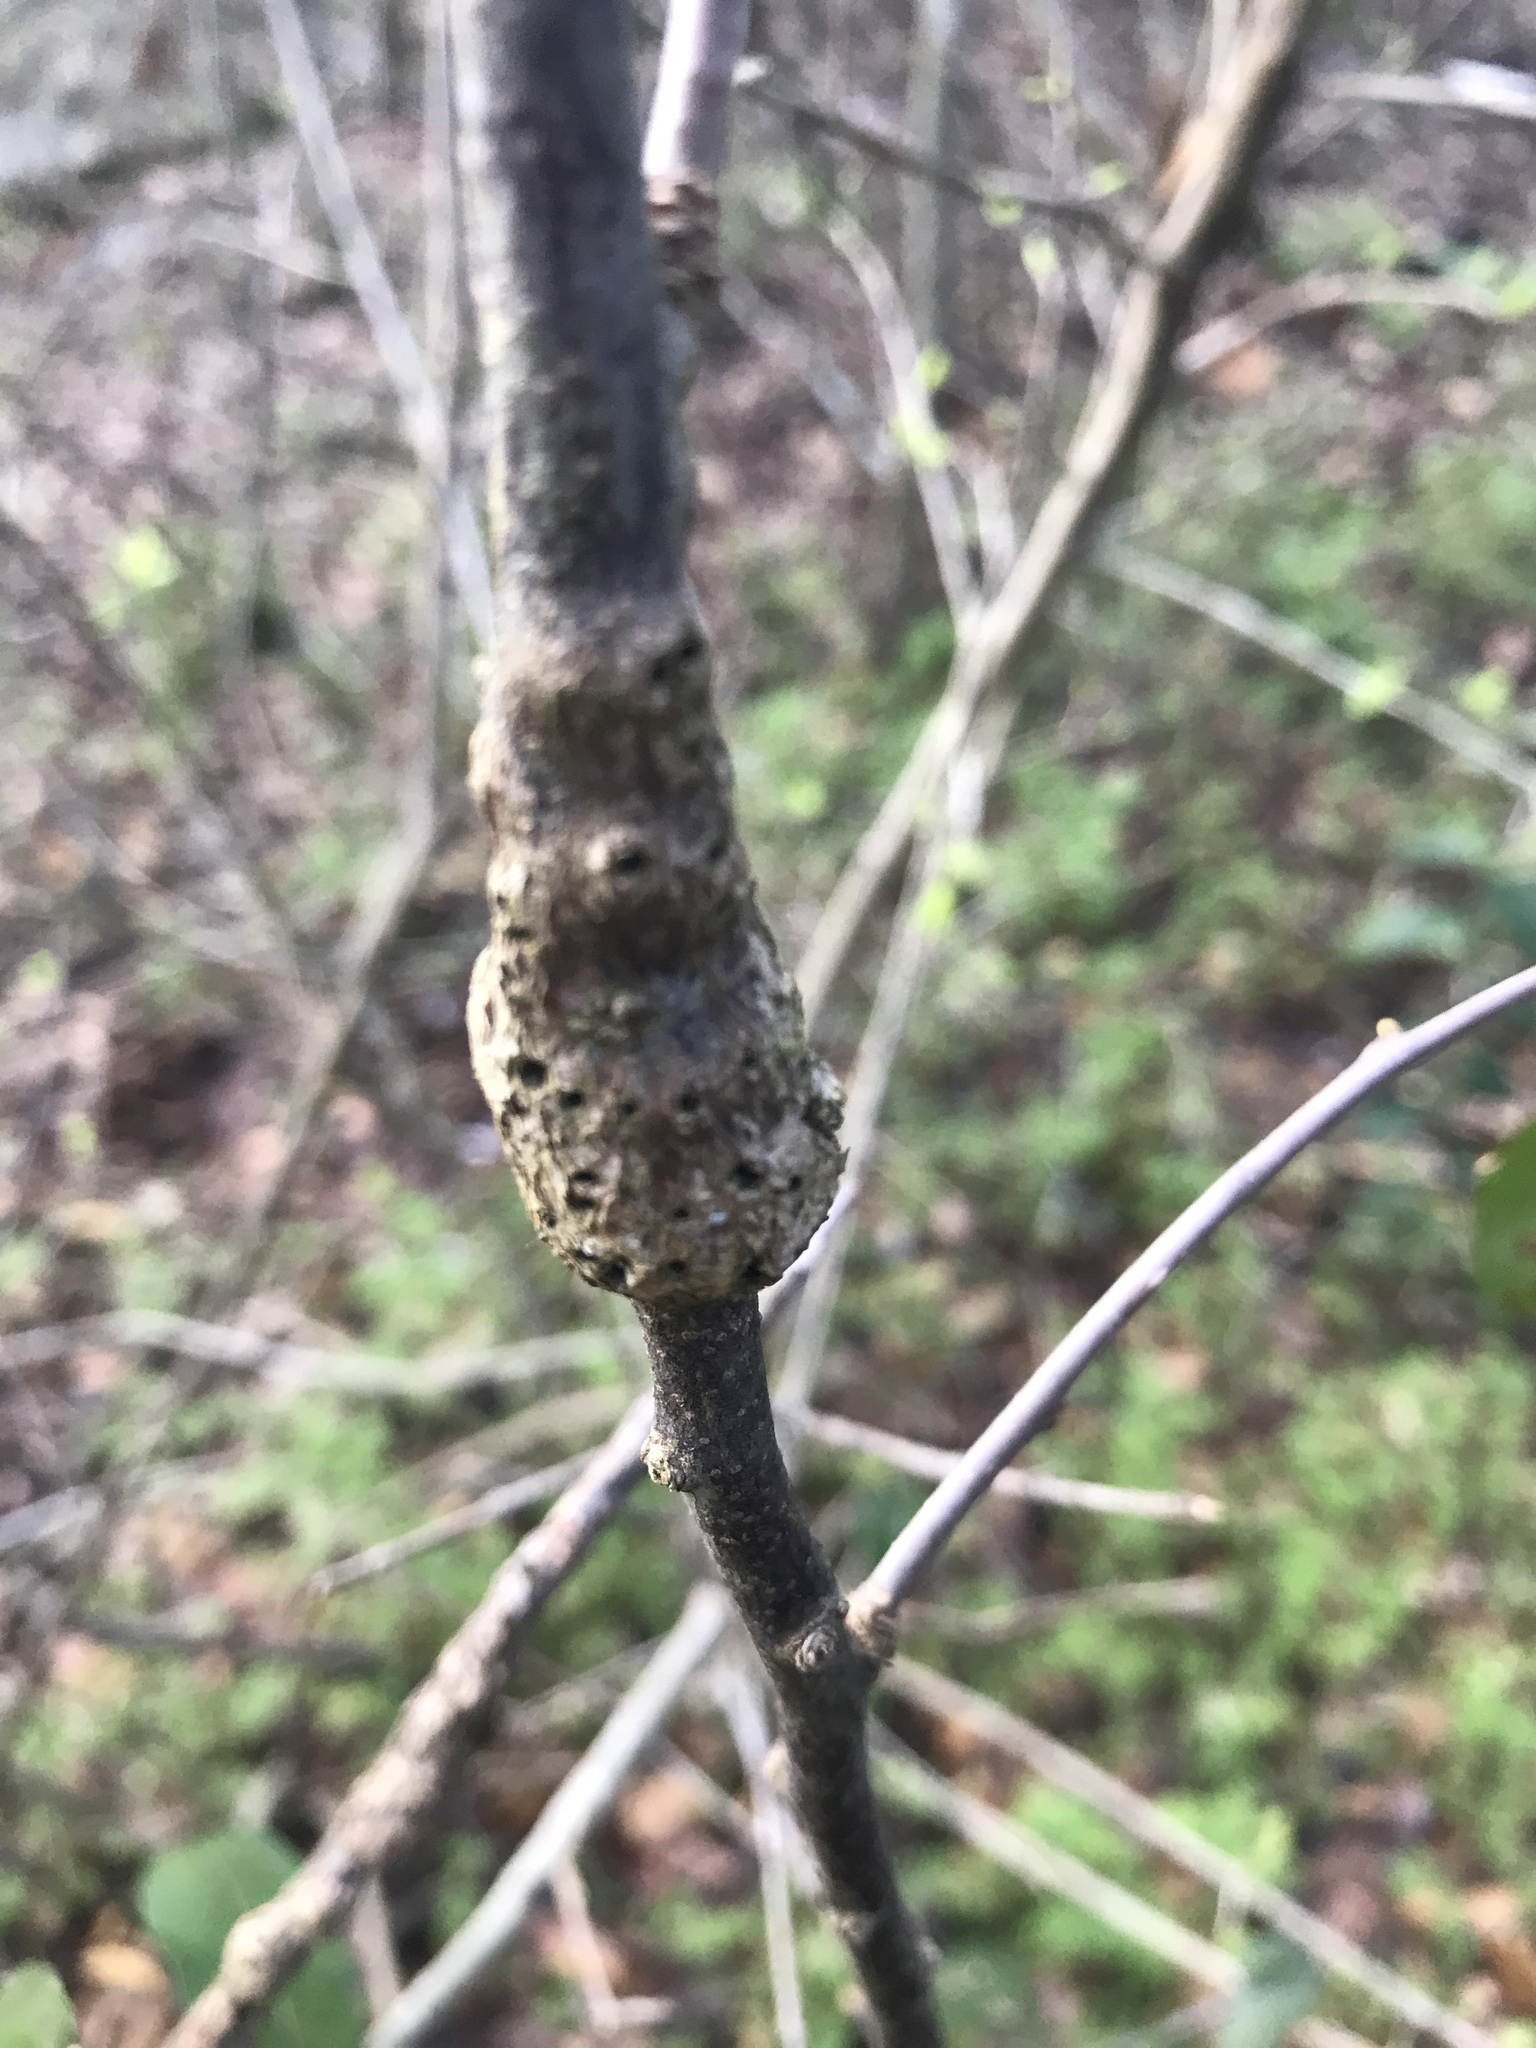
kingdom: Animalia
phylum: Arthropoda
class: Insecta
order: Diptera
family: Cecidomyiidae
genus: Bruggmanniella
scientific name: Bruggmanniella bumeliae
